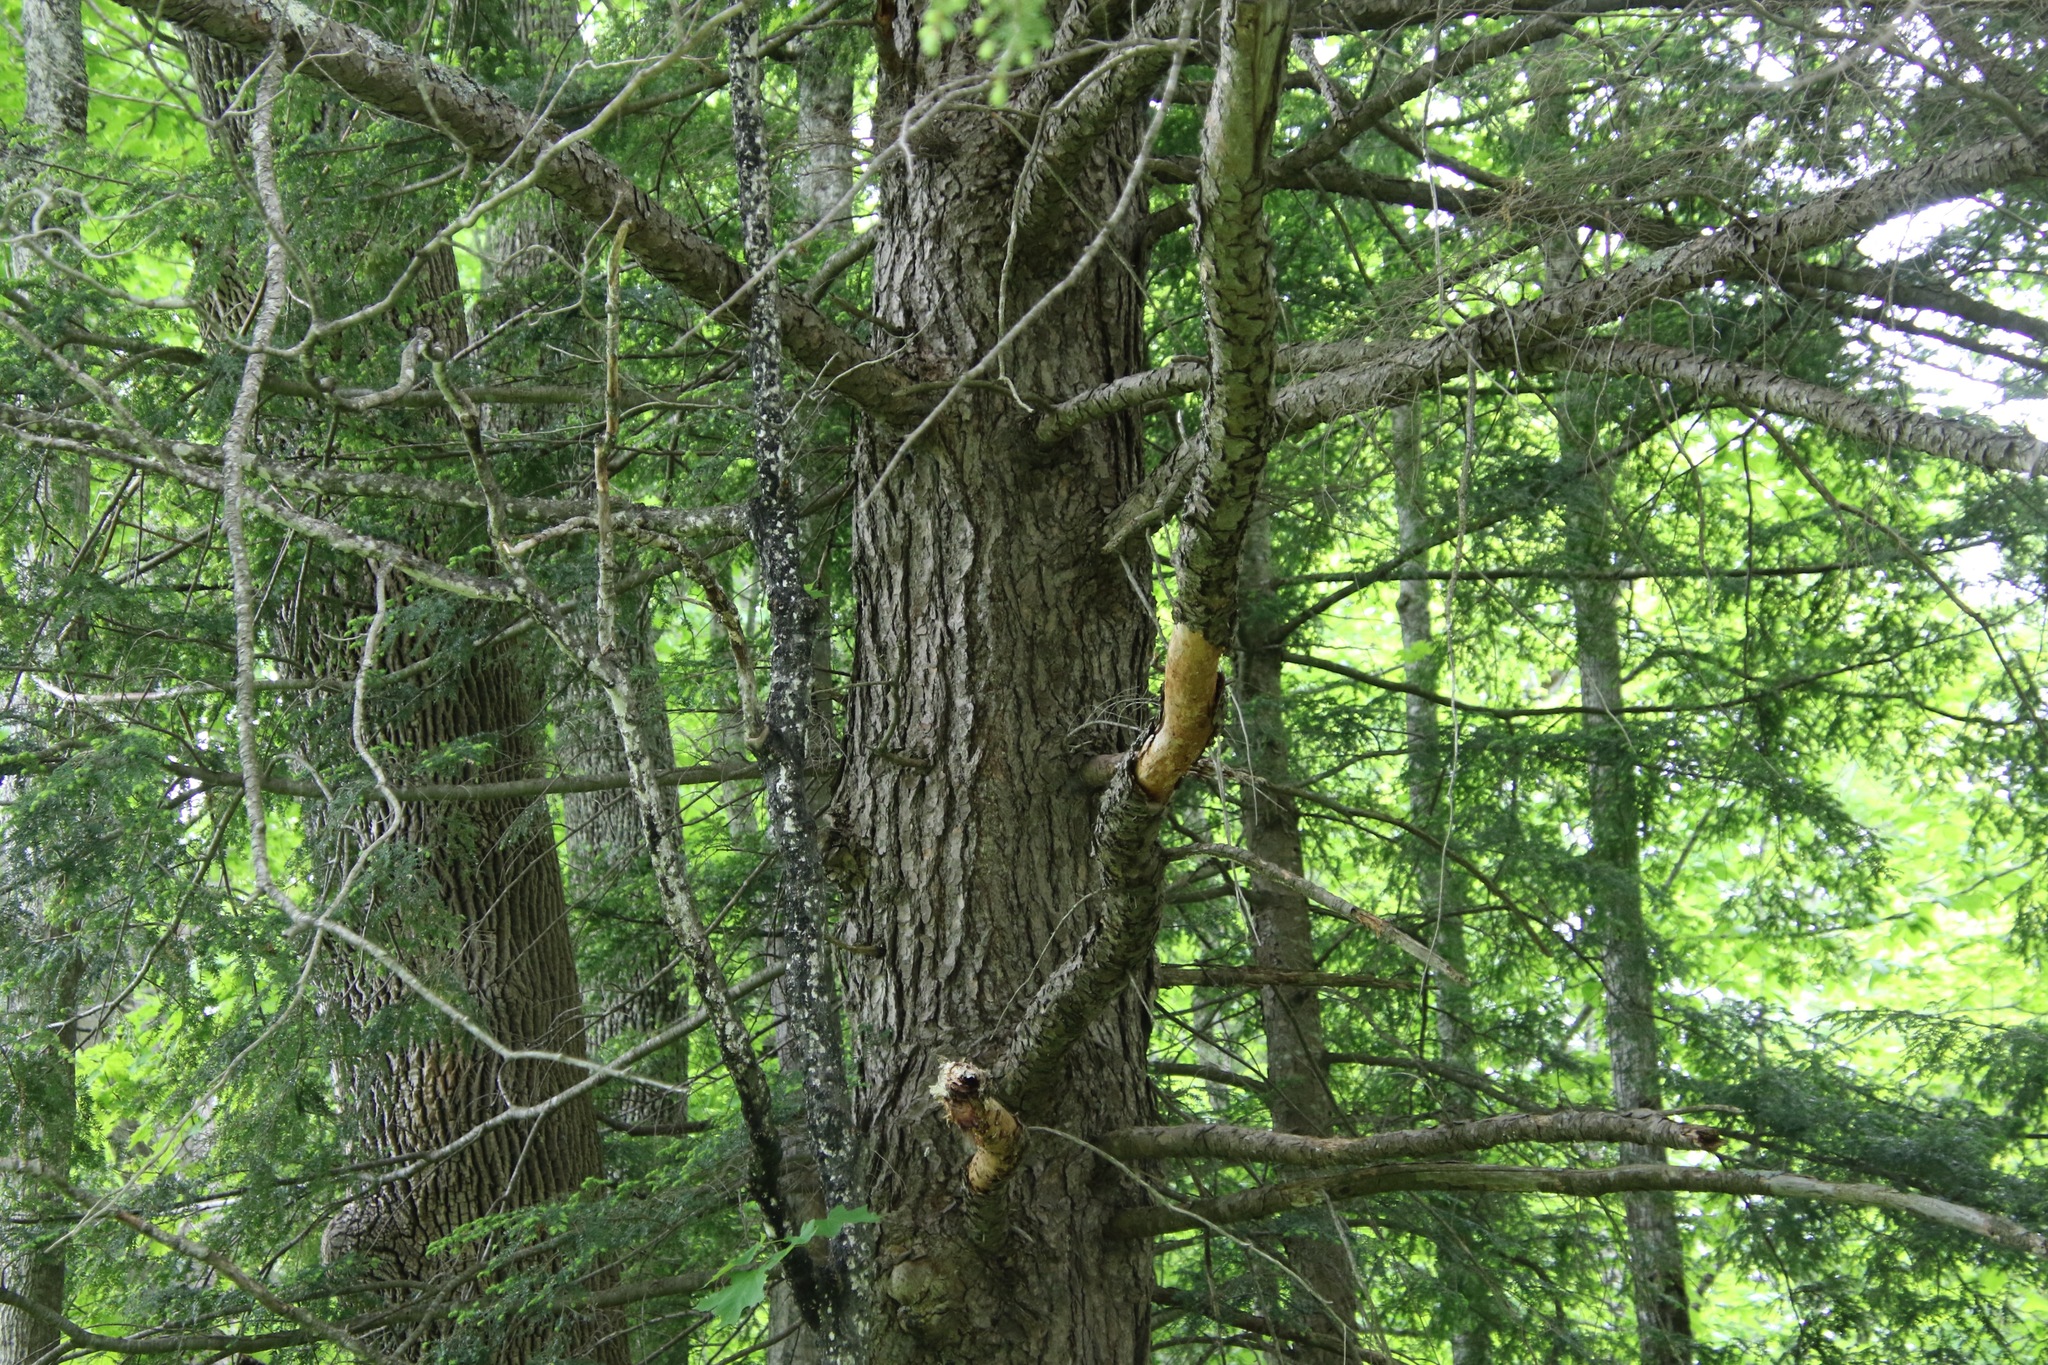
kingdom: Plantae
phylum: Tracheophyta
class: Pinopsida
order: Pinales
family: Pinaceae
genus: Tsuga
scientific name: Tsuga canadensis
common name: Eastern hemlock
